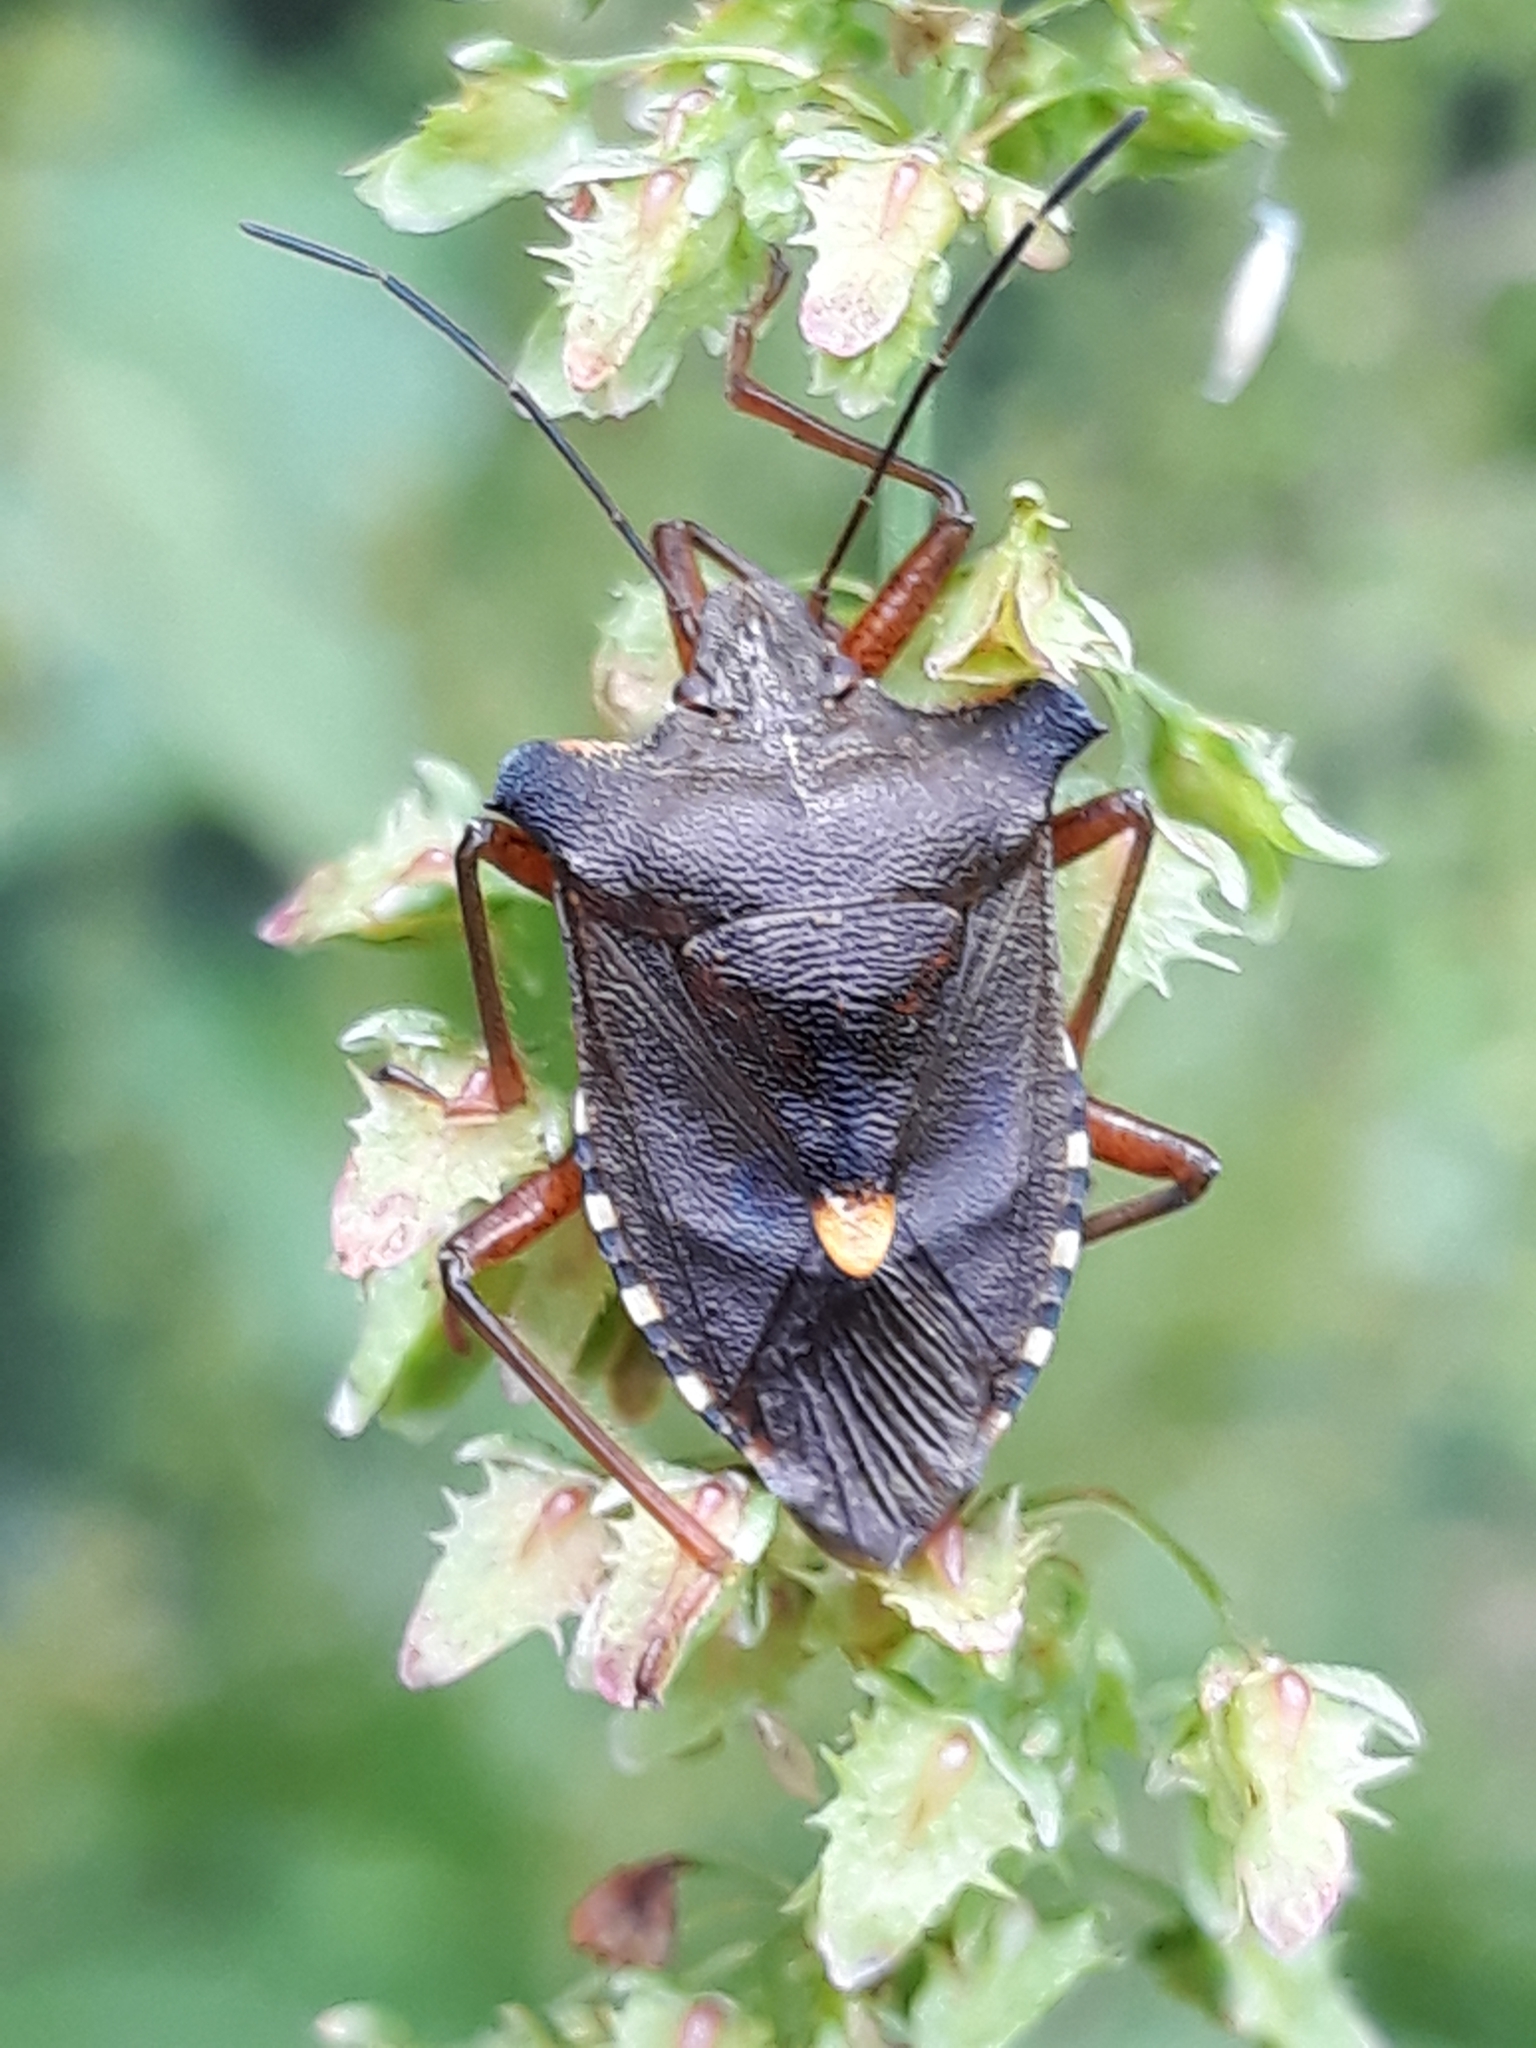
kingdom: Animalia
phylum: Arthropoda
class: Insecta
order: Hemiptera
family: Pentatomidae
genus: Pentatoma
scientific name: Pentatoma rufipes
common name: Forest bug
